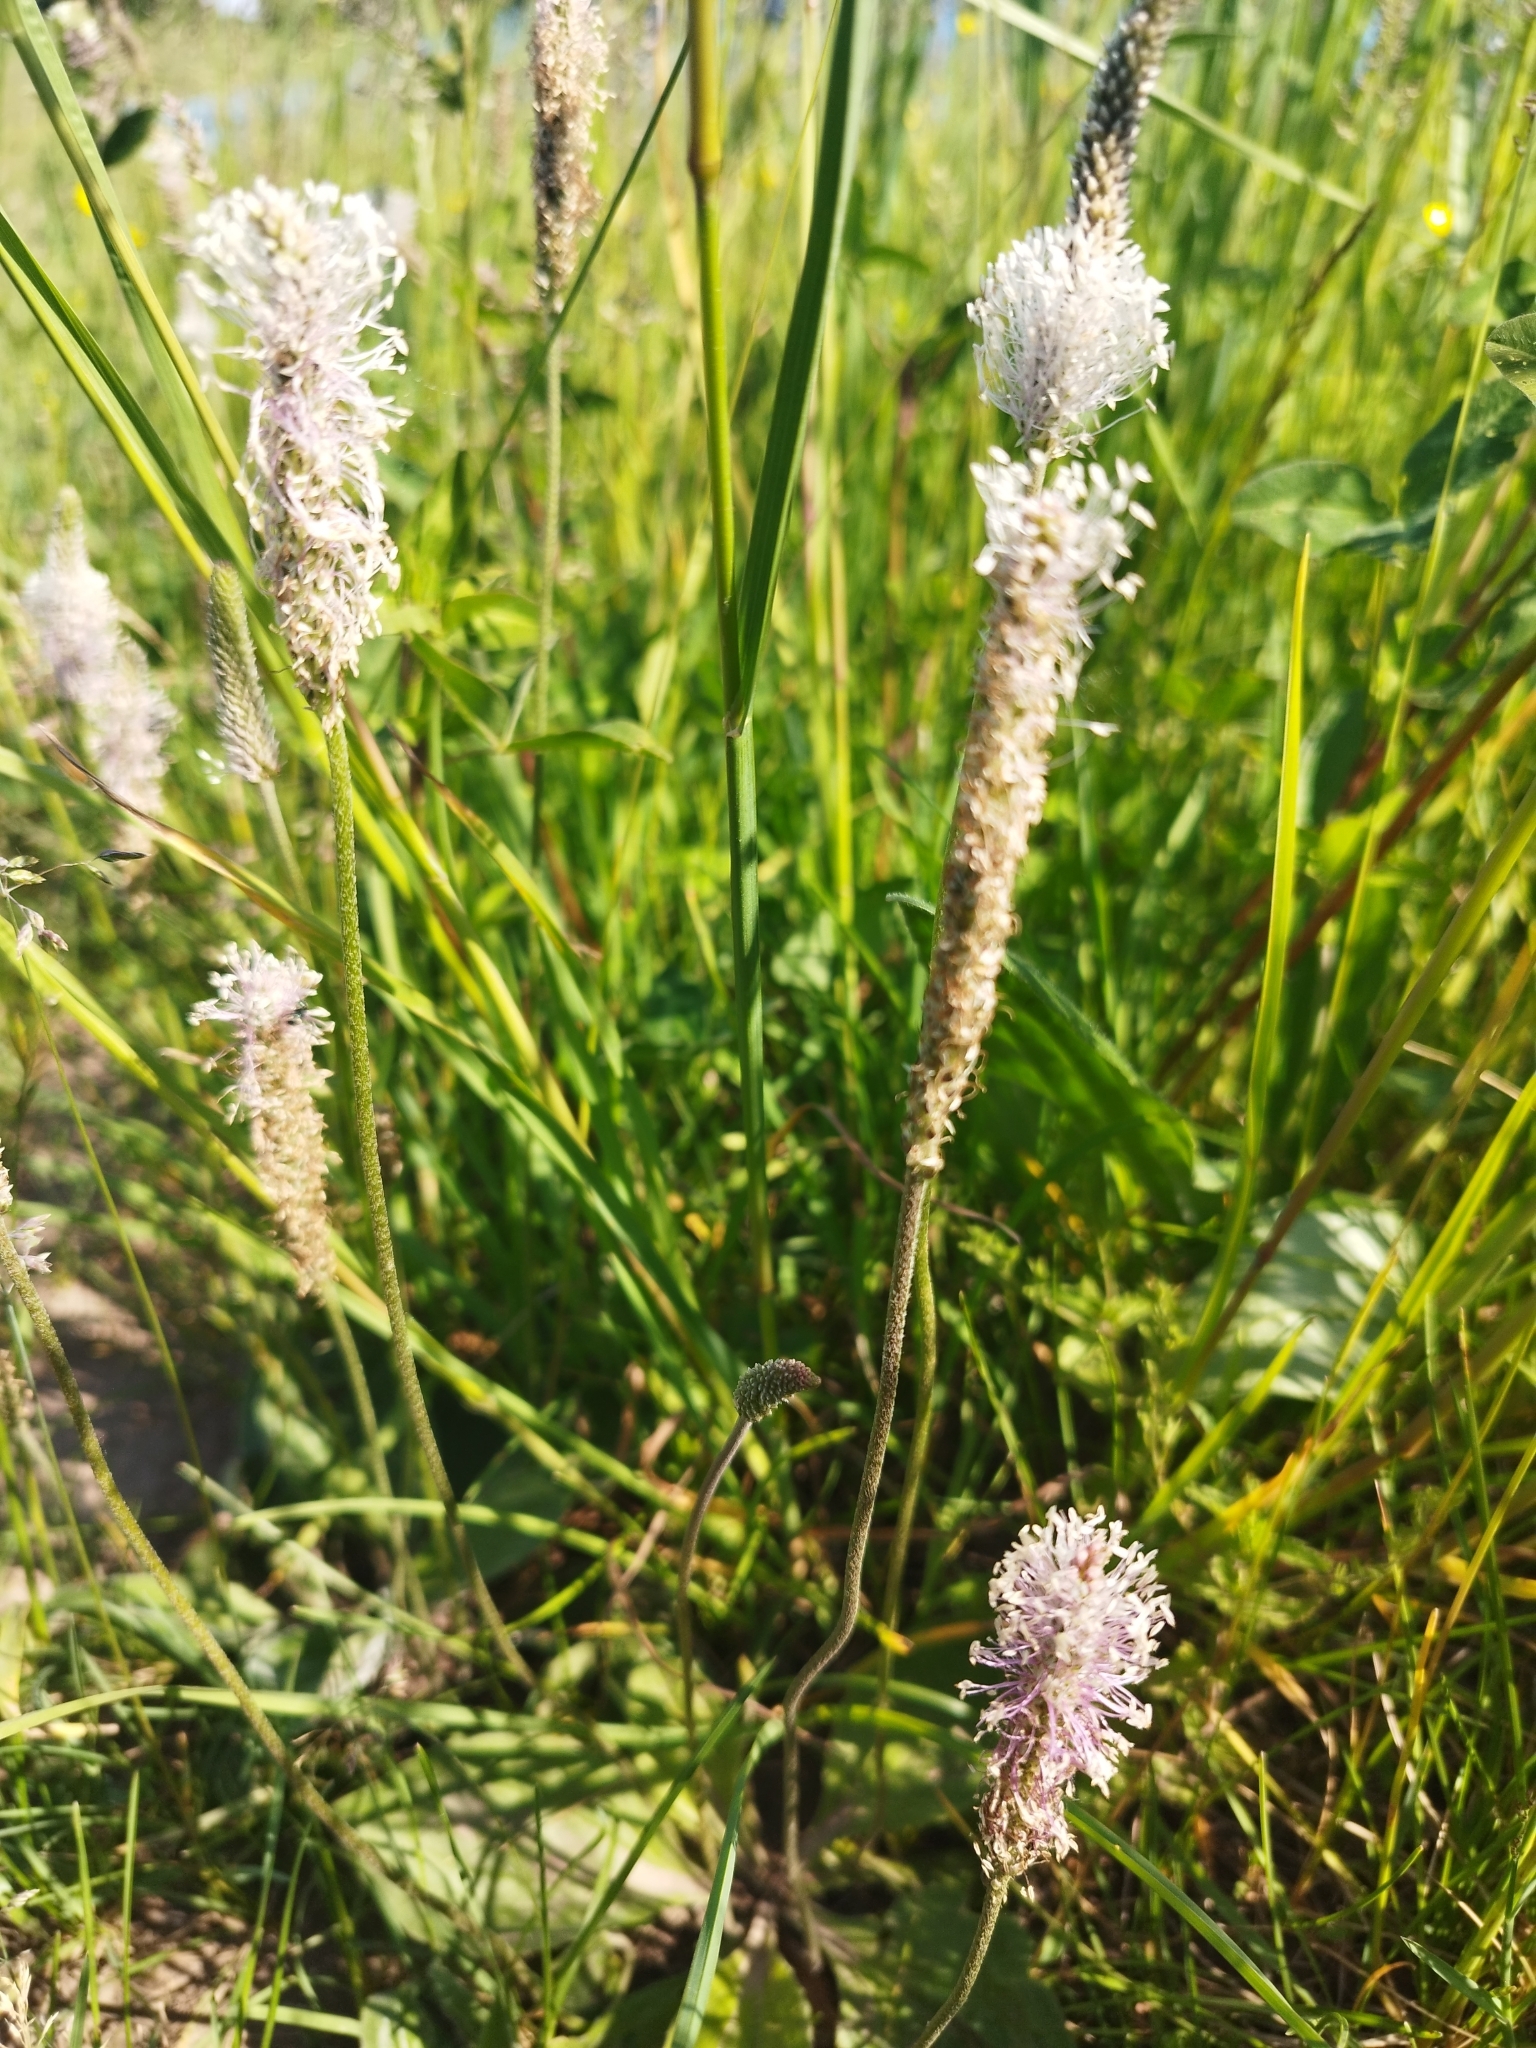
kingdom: Plantae
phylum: Tracheophyta
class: Magnoliopsida
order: Lamiales
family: Plantaginaceae
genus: Plantago
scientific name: Plantago media
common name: Hoary plantain
